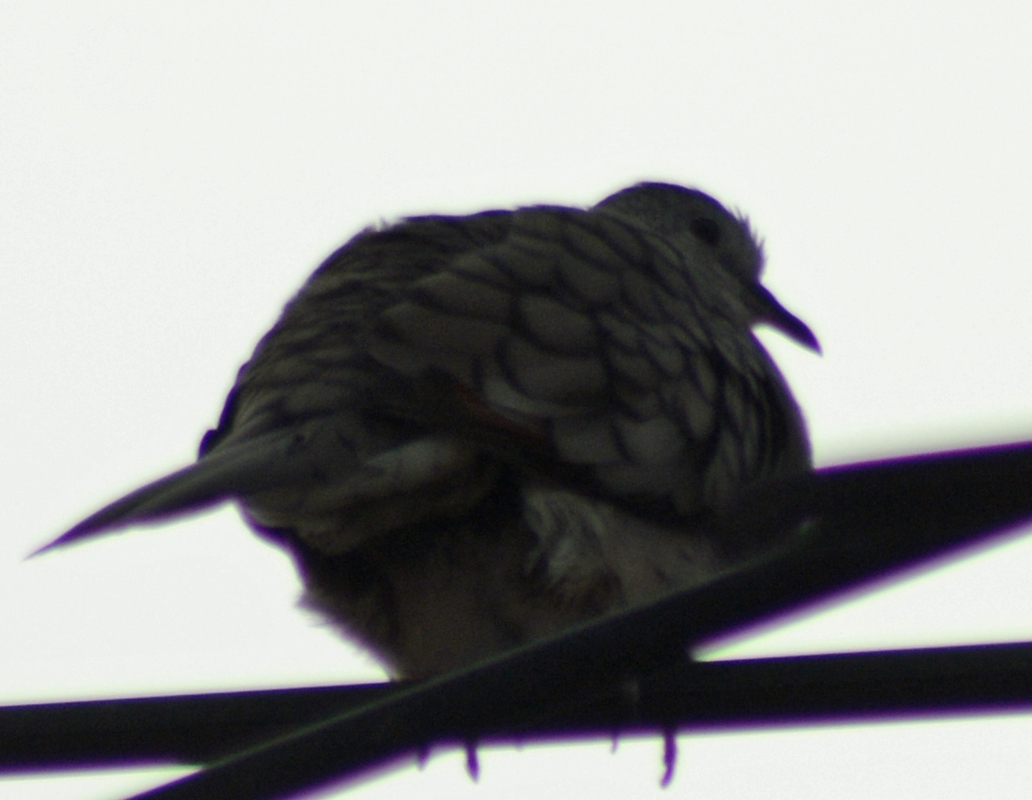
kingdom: Animalia
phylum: Chordata
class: Aves
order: Columbiformes
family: Columbidae
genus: Columbina
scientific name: Columbina inca
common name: Inca dove
